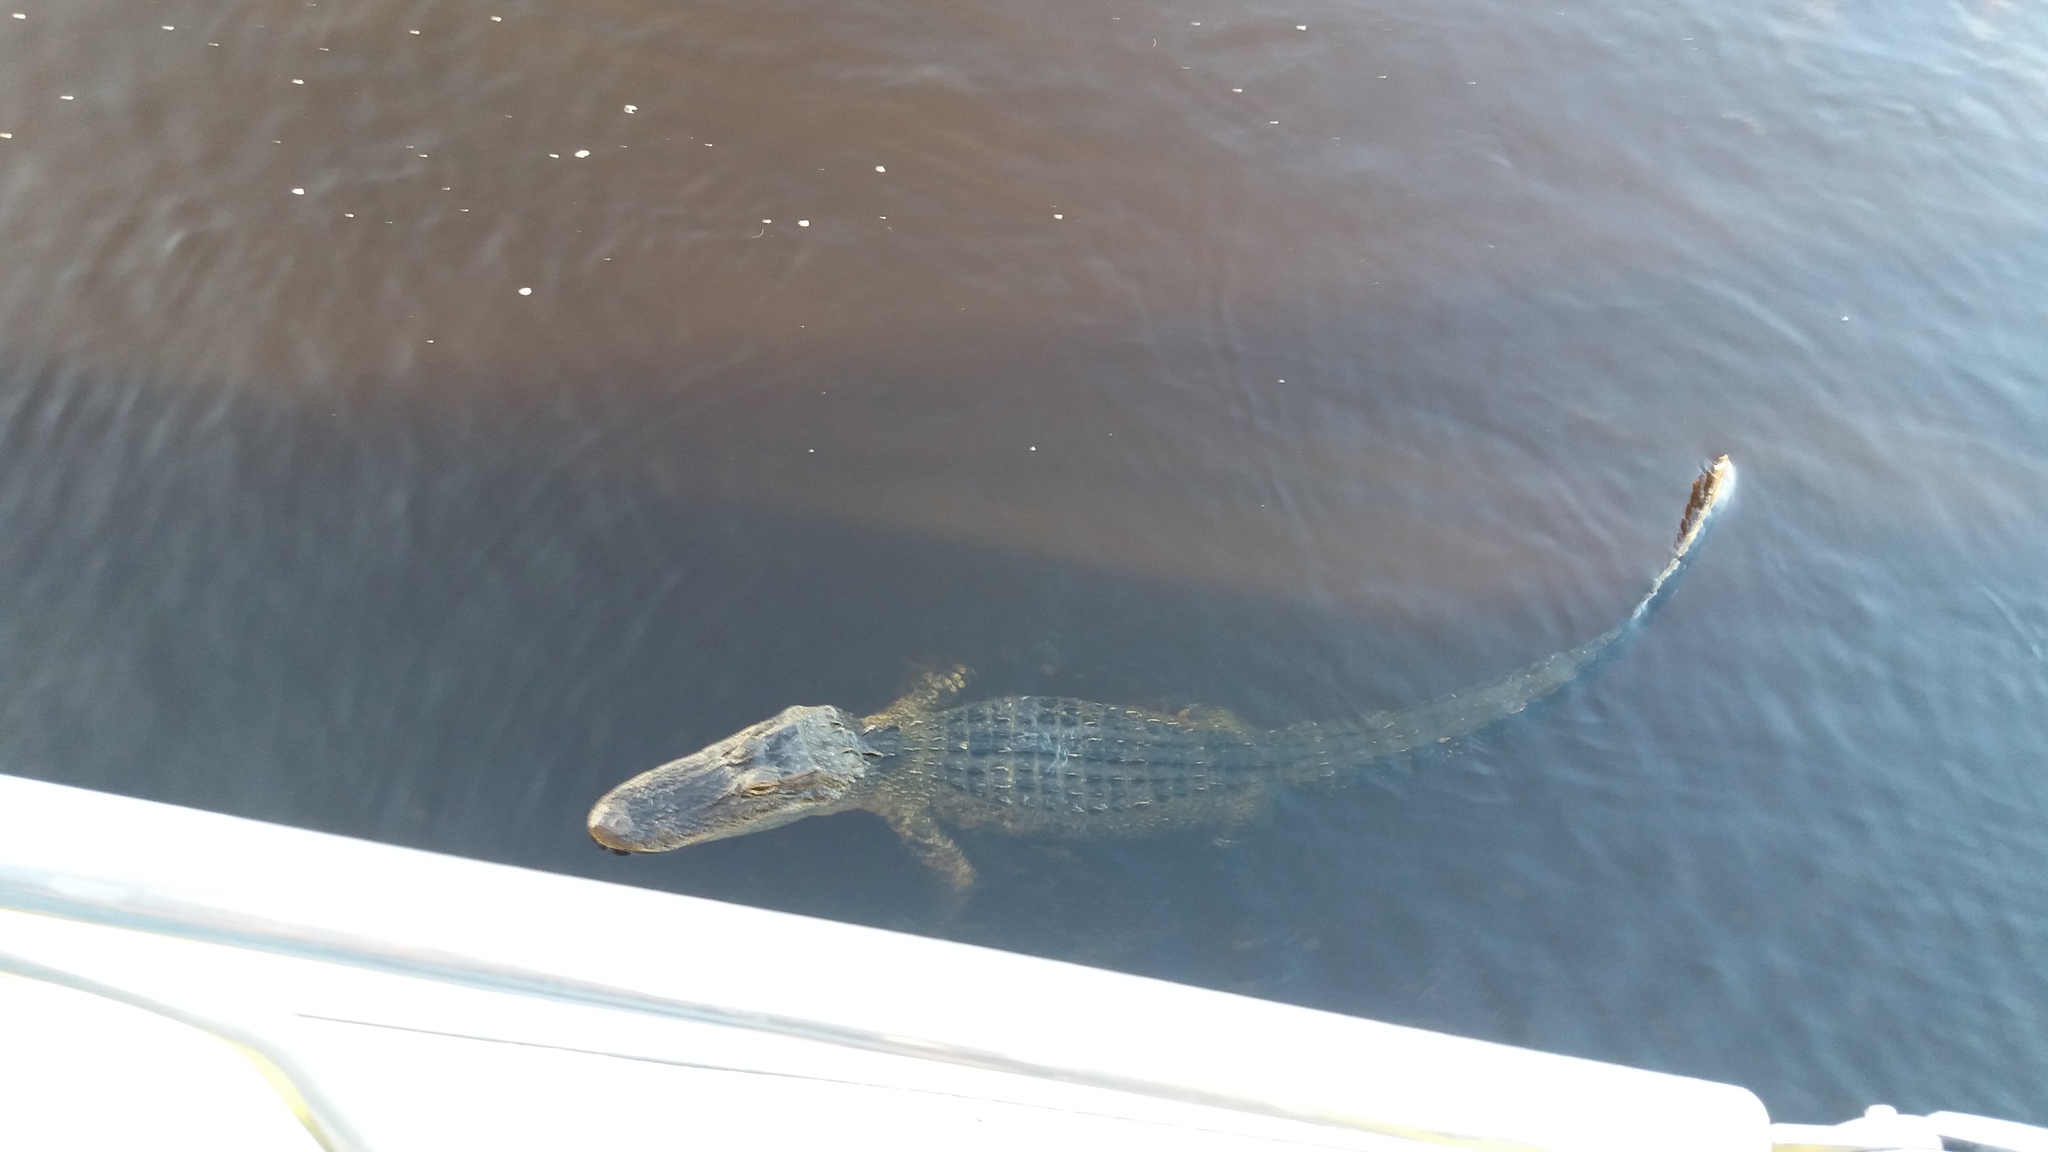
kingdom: Animalia
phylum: Chordata
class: Crocodylia
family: Alligatoridae
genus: Alligator
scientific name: Alligator mississippiensis
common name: American alligator
